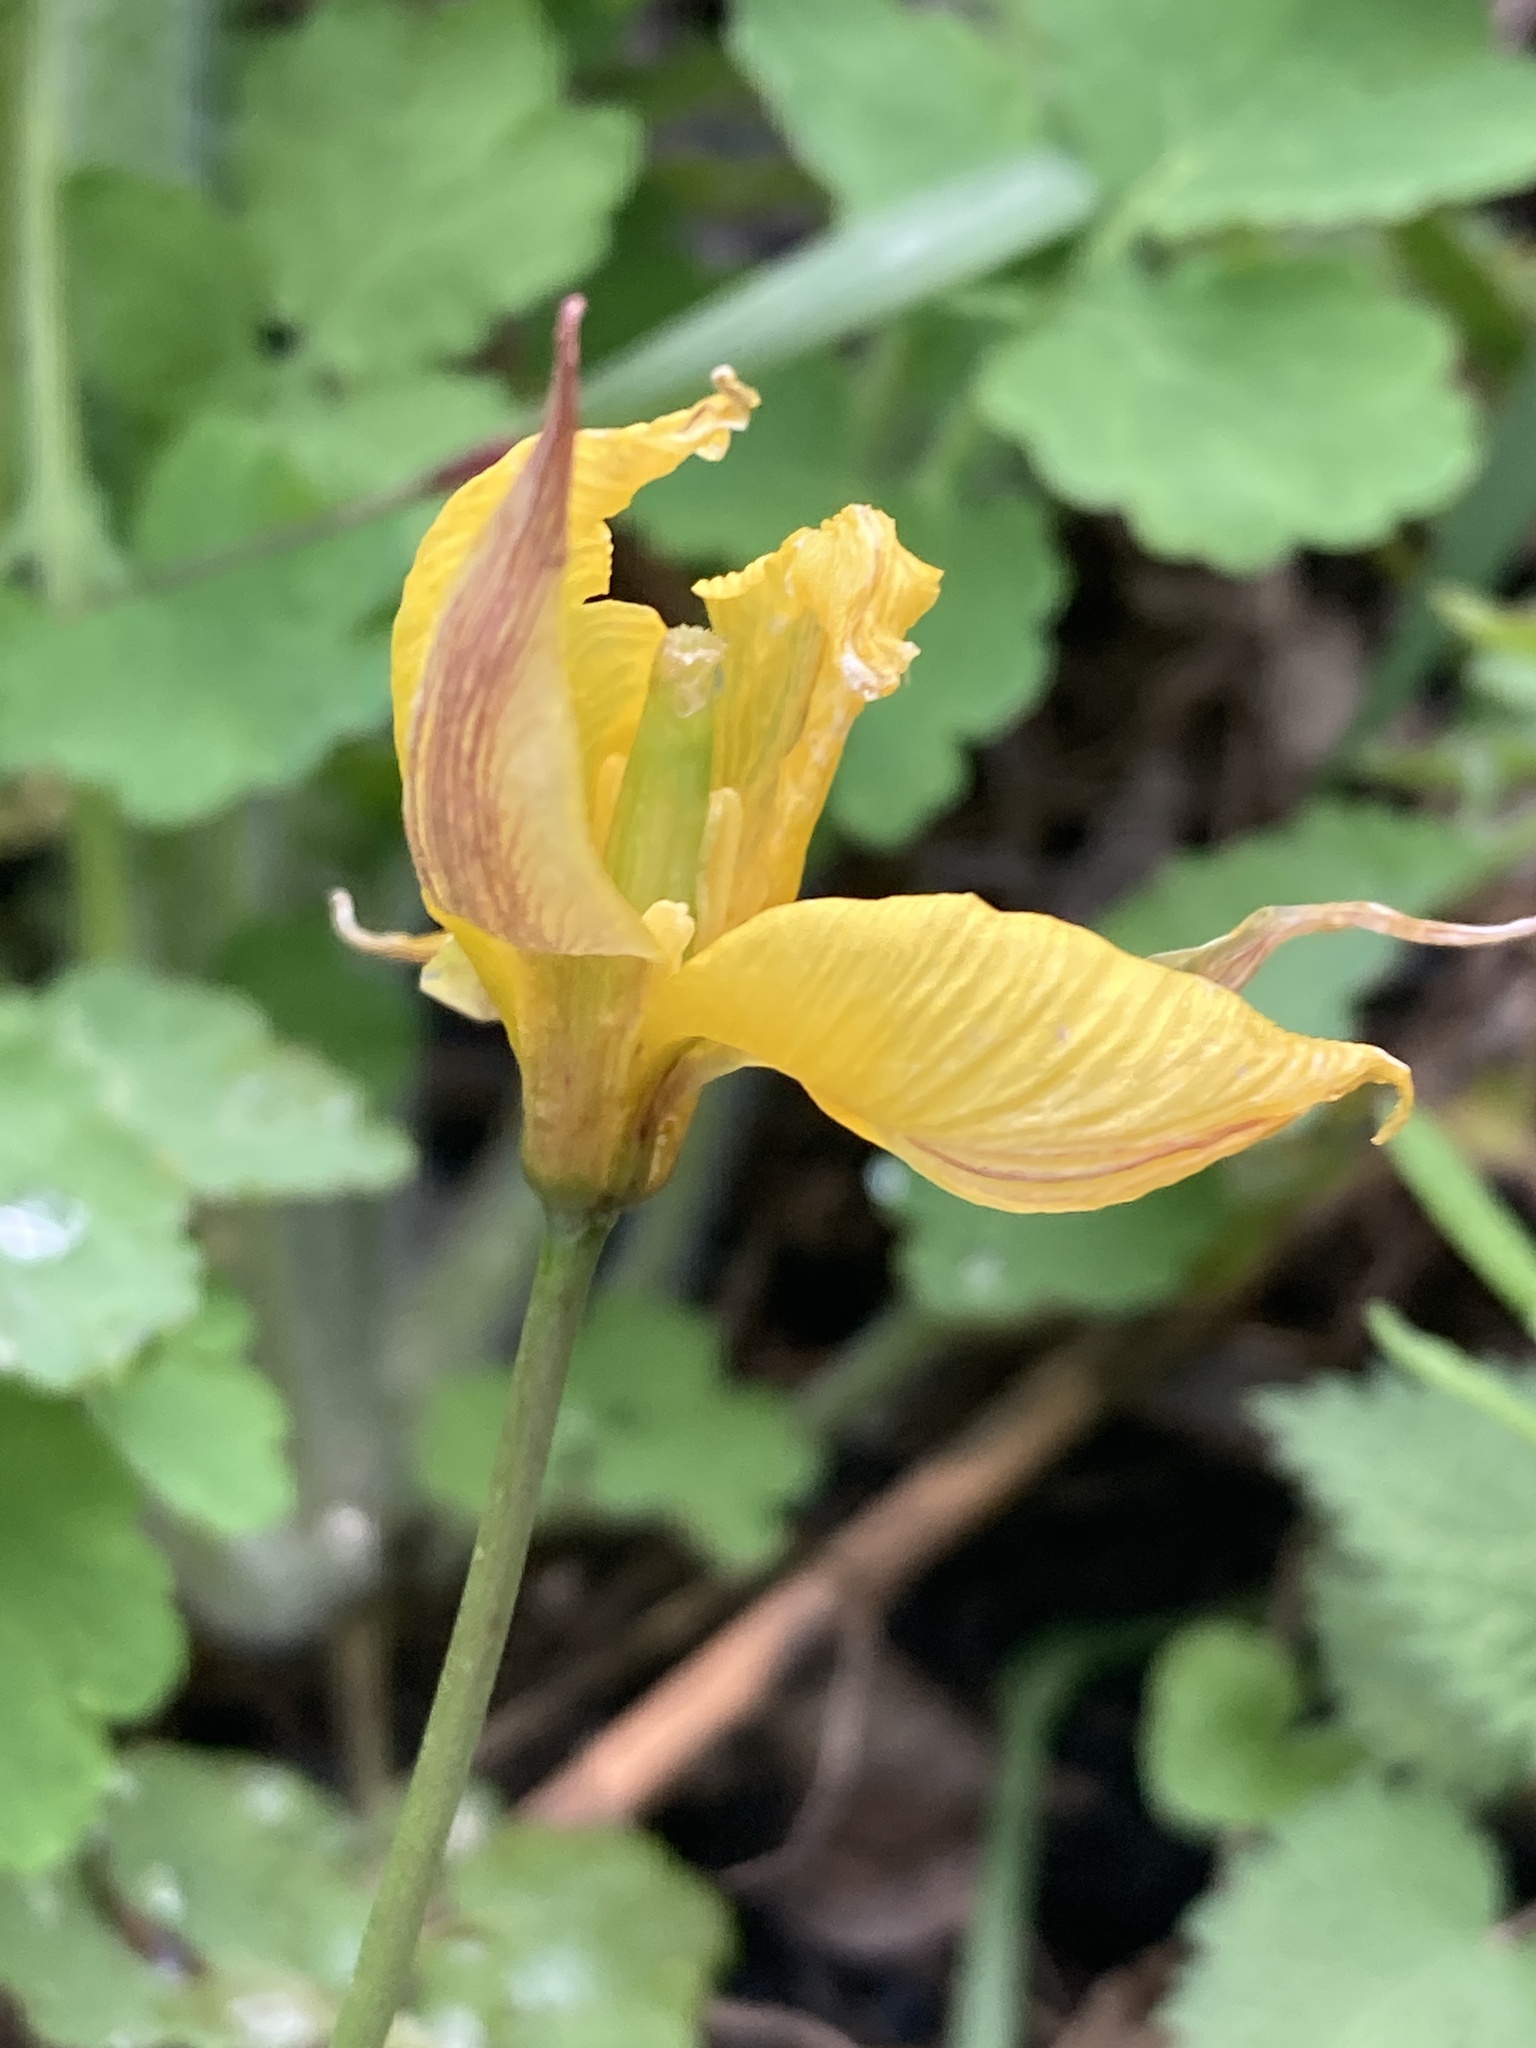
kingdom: Plantae
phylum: Tracheophyta
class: Liliopsida
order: Liliales
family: Liliaceae
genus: Tulipa
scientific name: Tulipa sylvestris
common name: Wild tulip
